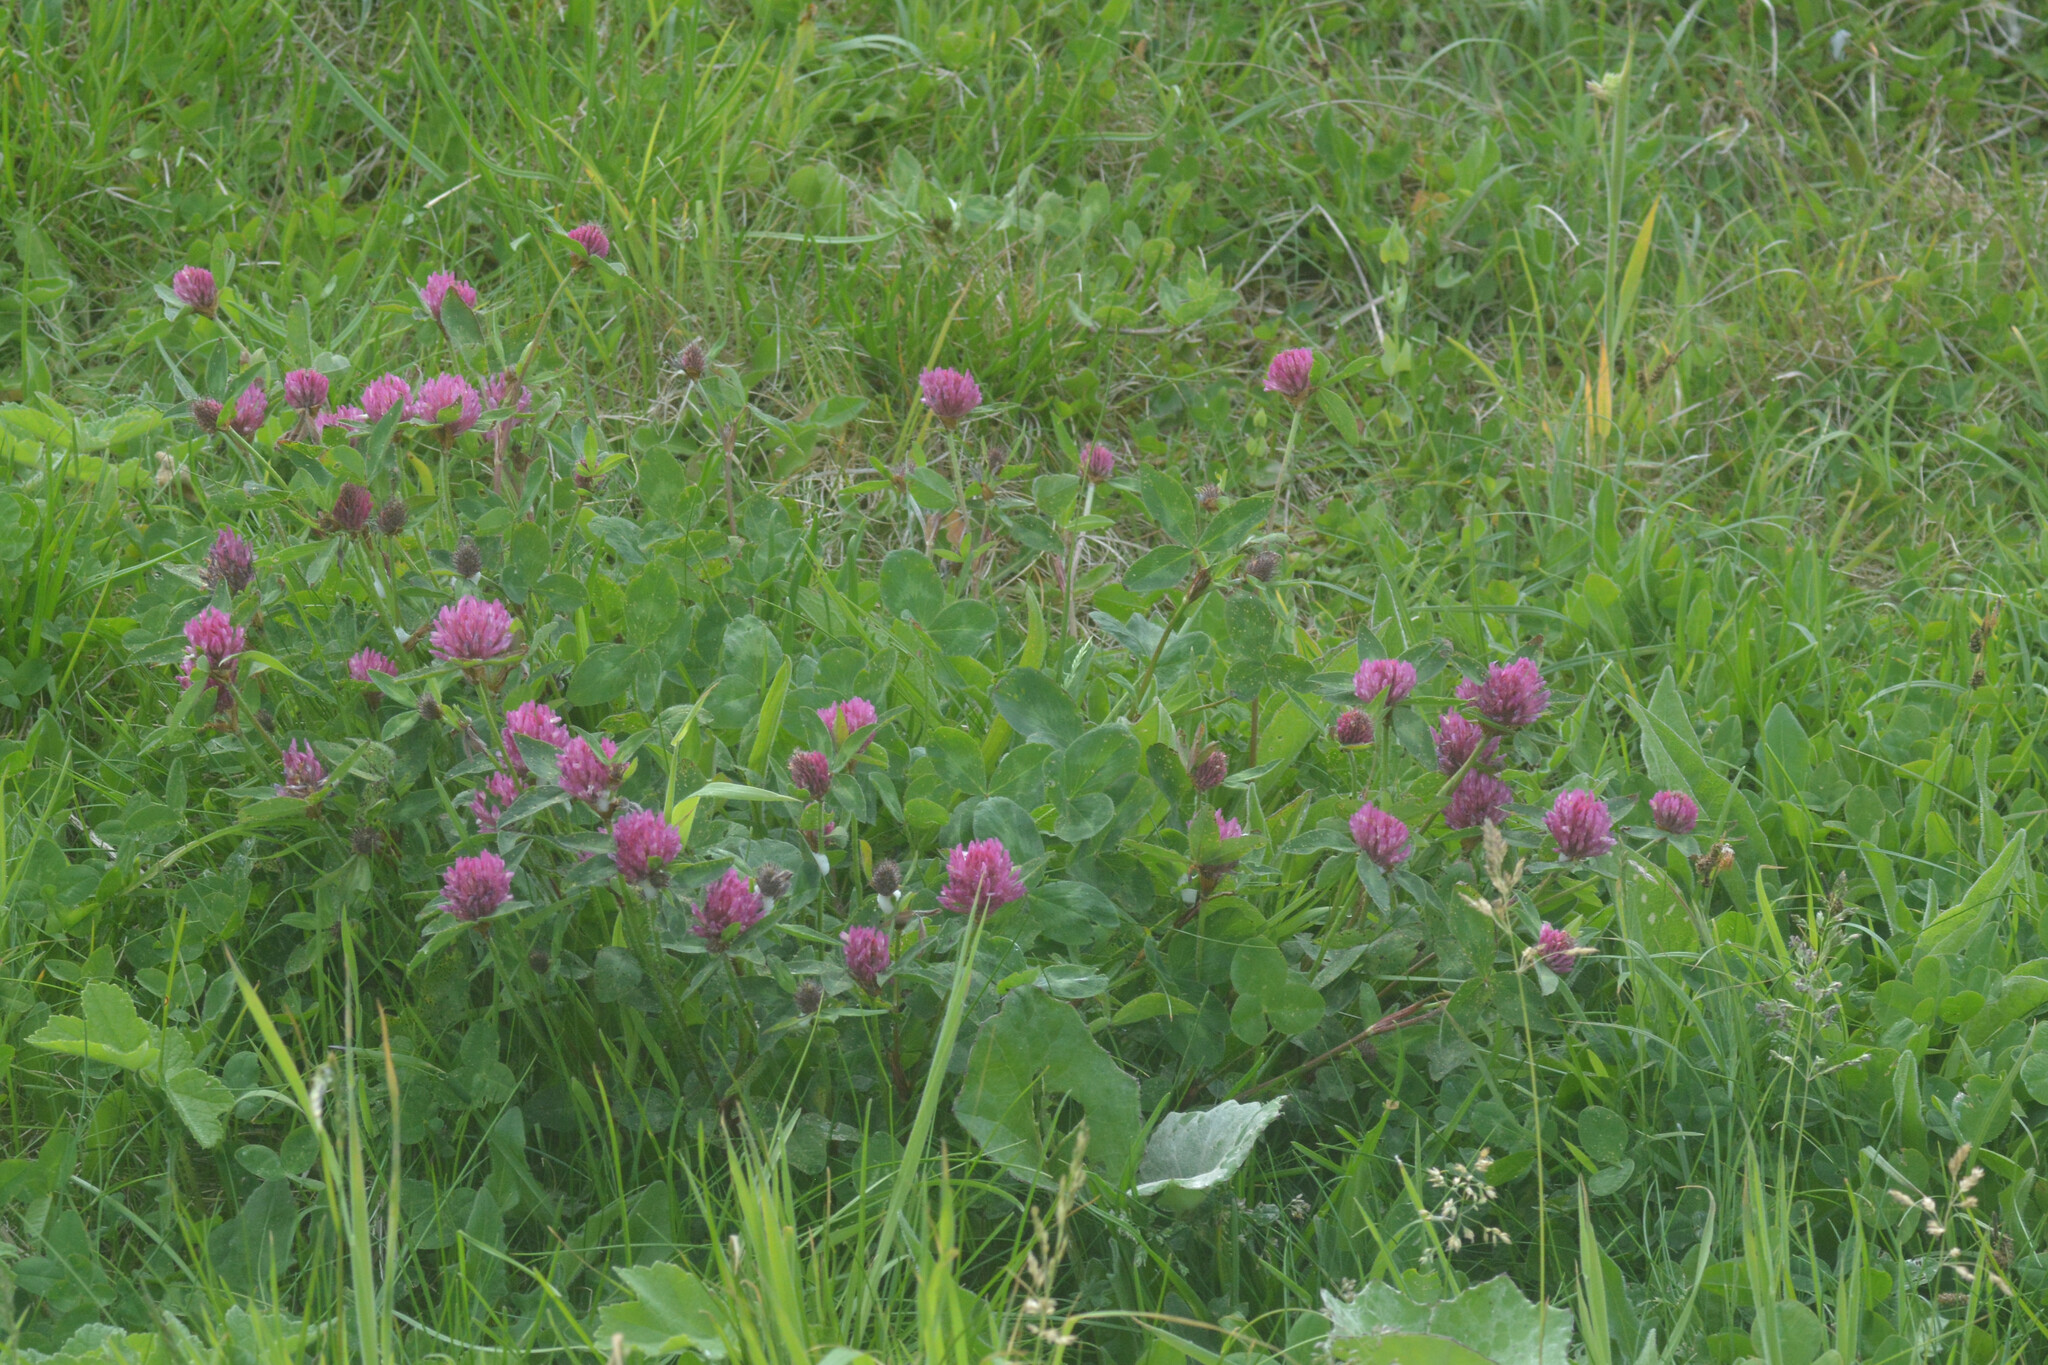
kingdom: Plantae
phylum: Tracheophyta
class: Magnoliopsida
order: Fabales
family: Fabaceae
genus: Trifolium
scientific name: Trifolium pratense
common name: Red clover
